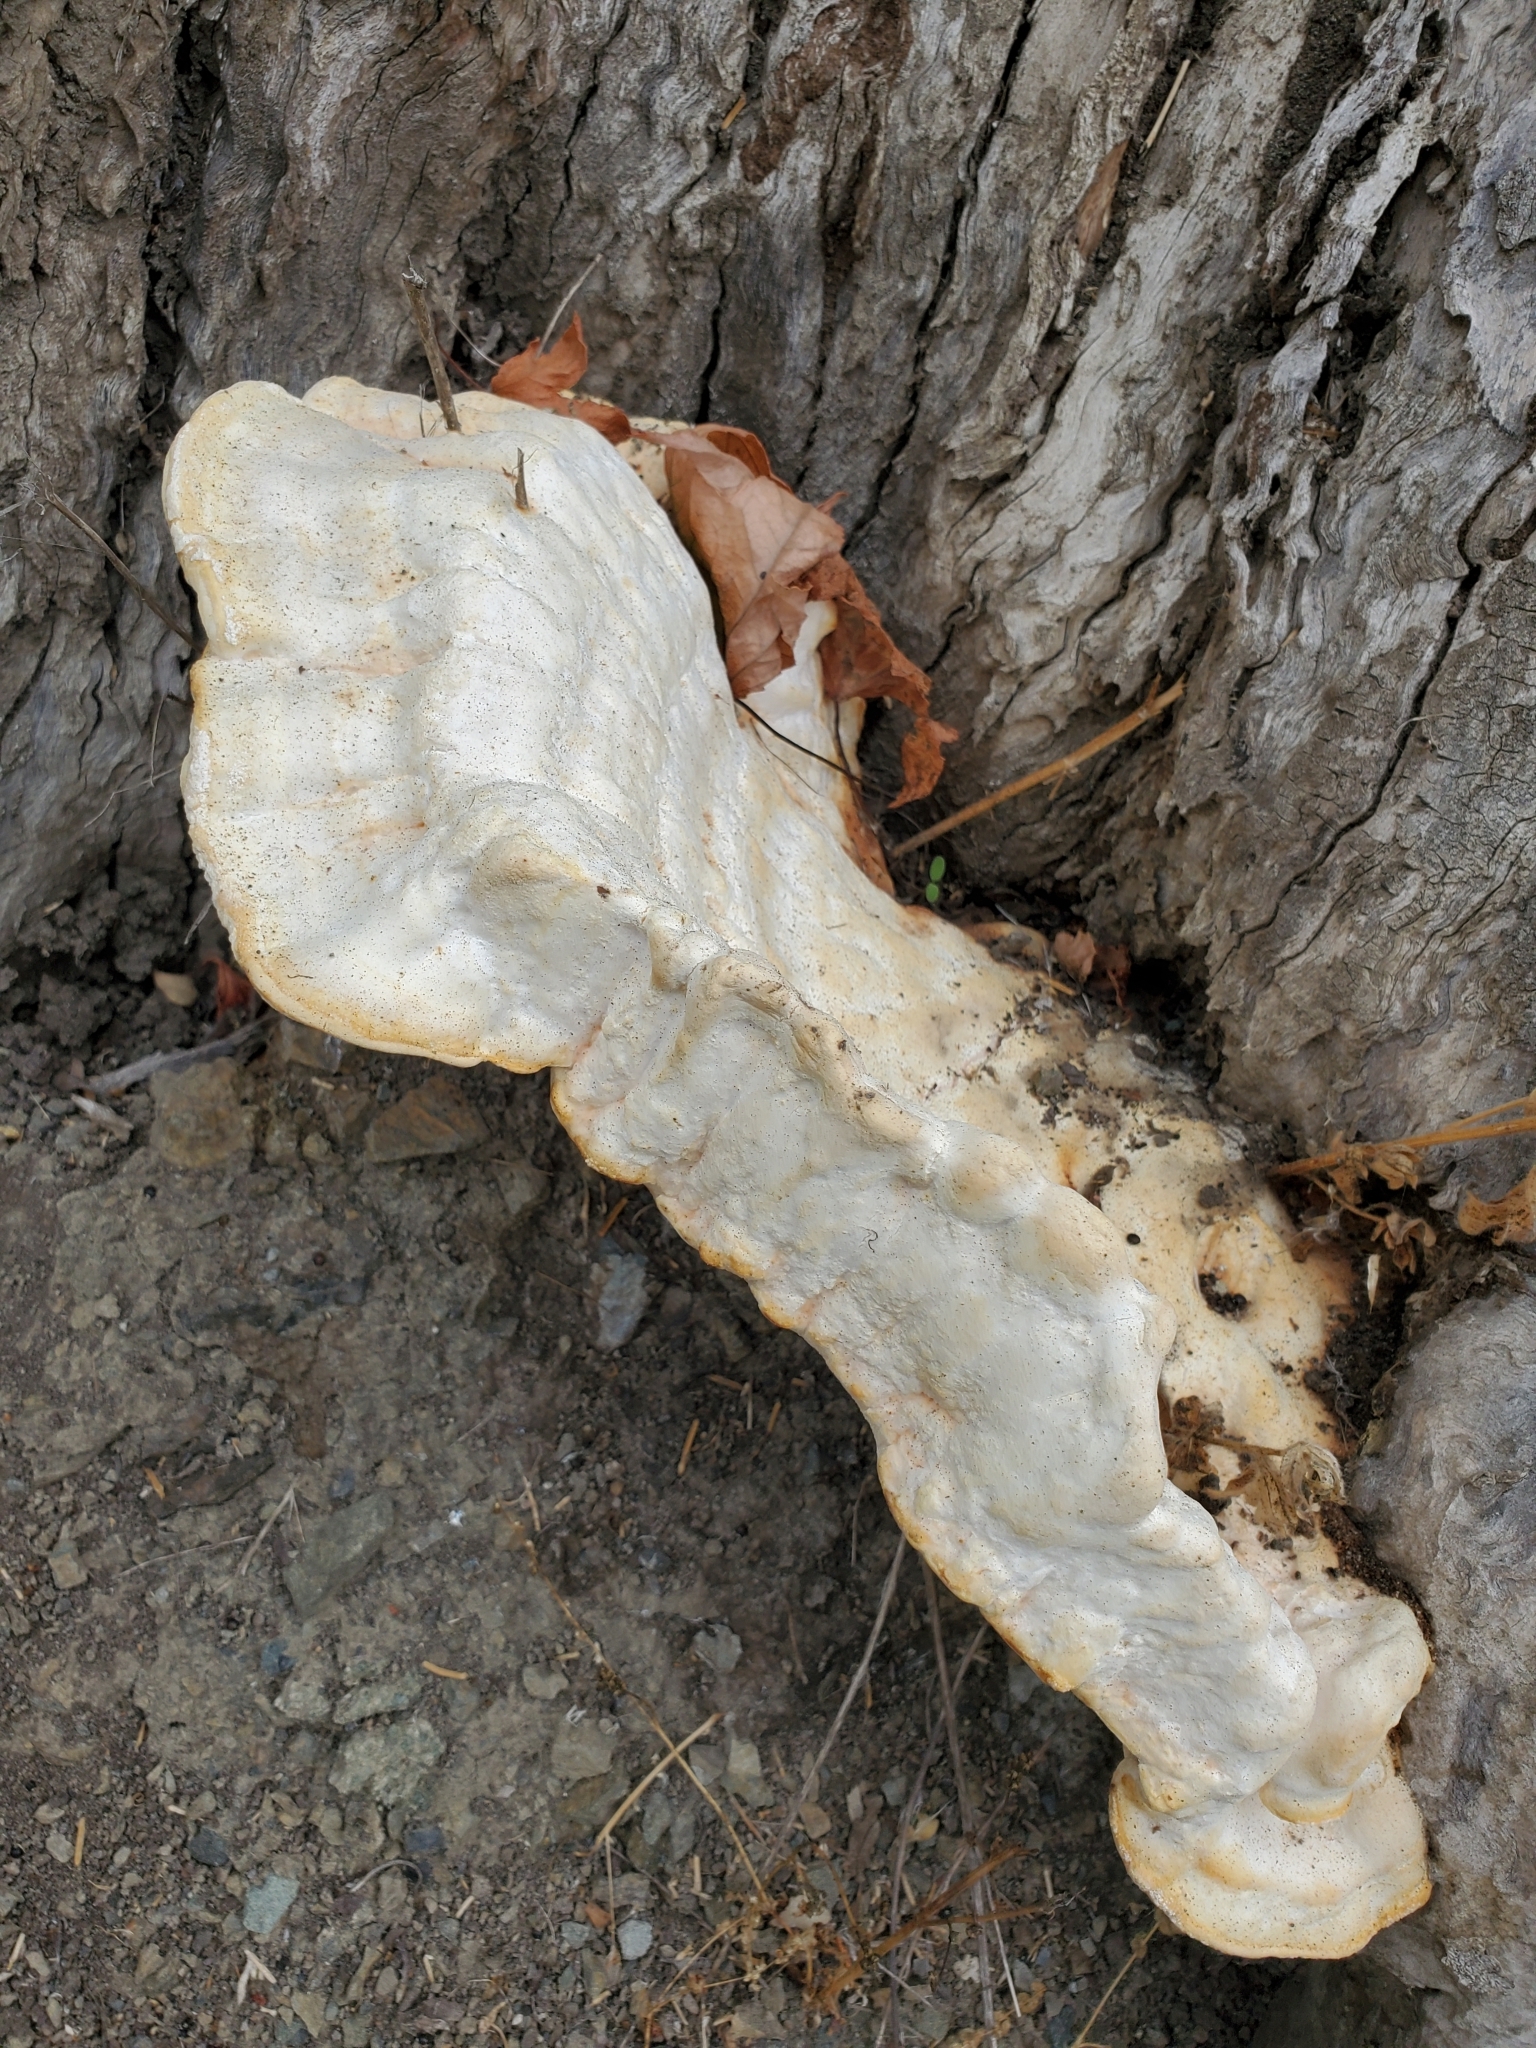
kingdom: Fungi
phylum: Basidiomycota
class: Agaricomycetes
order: Polyporales
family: Laetiporaceae
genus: Laetiporus
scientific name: Laetiporus gilbertsonii
